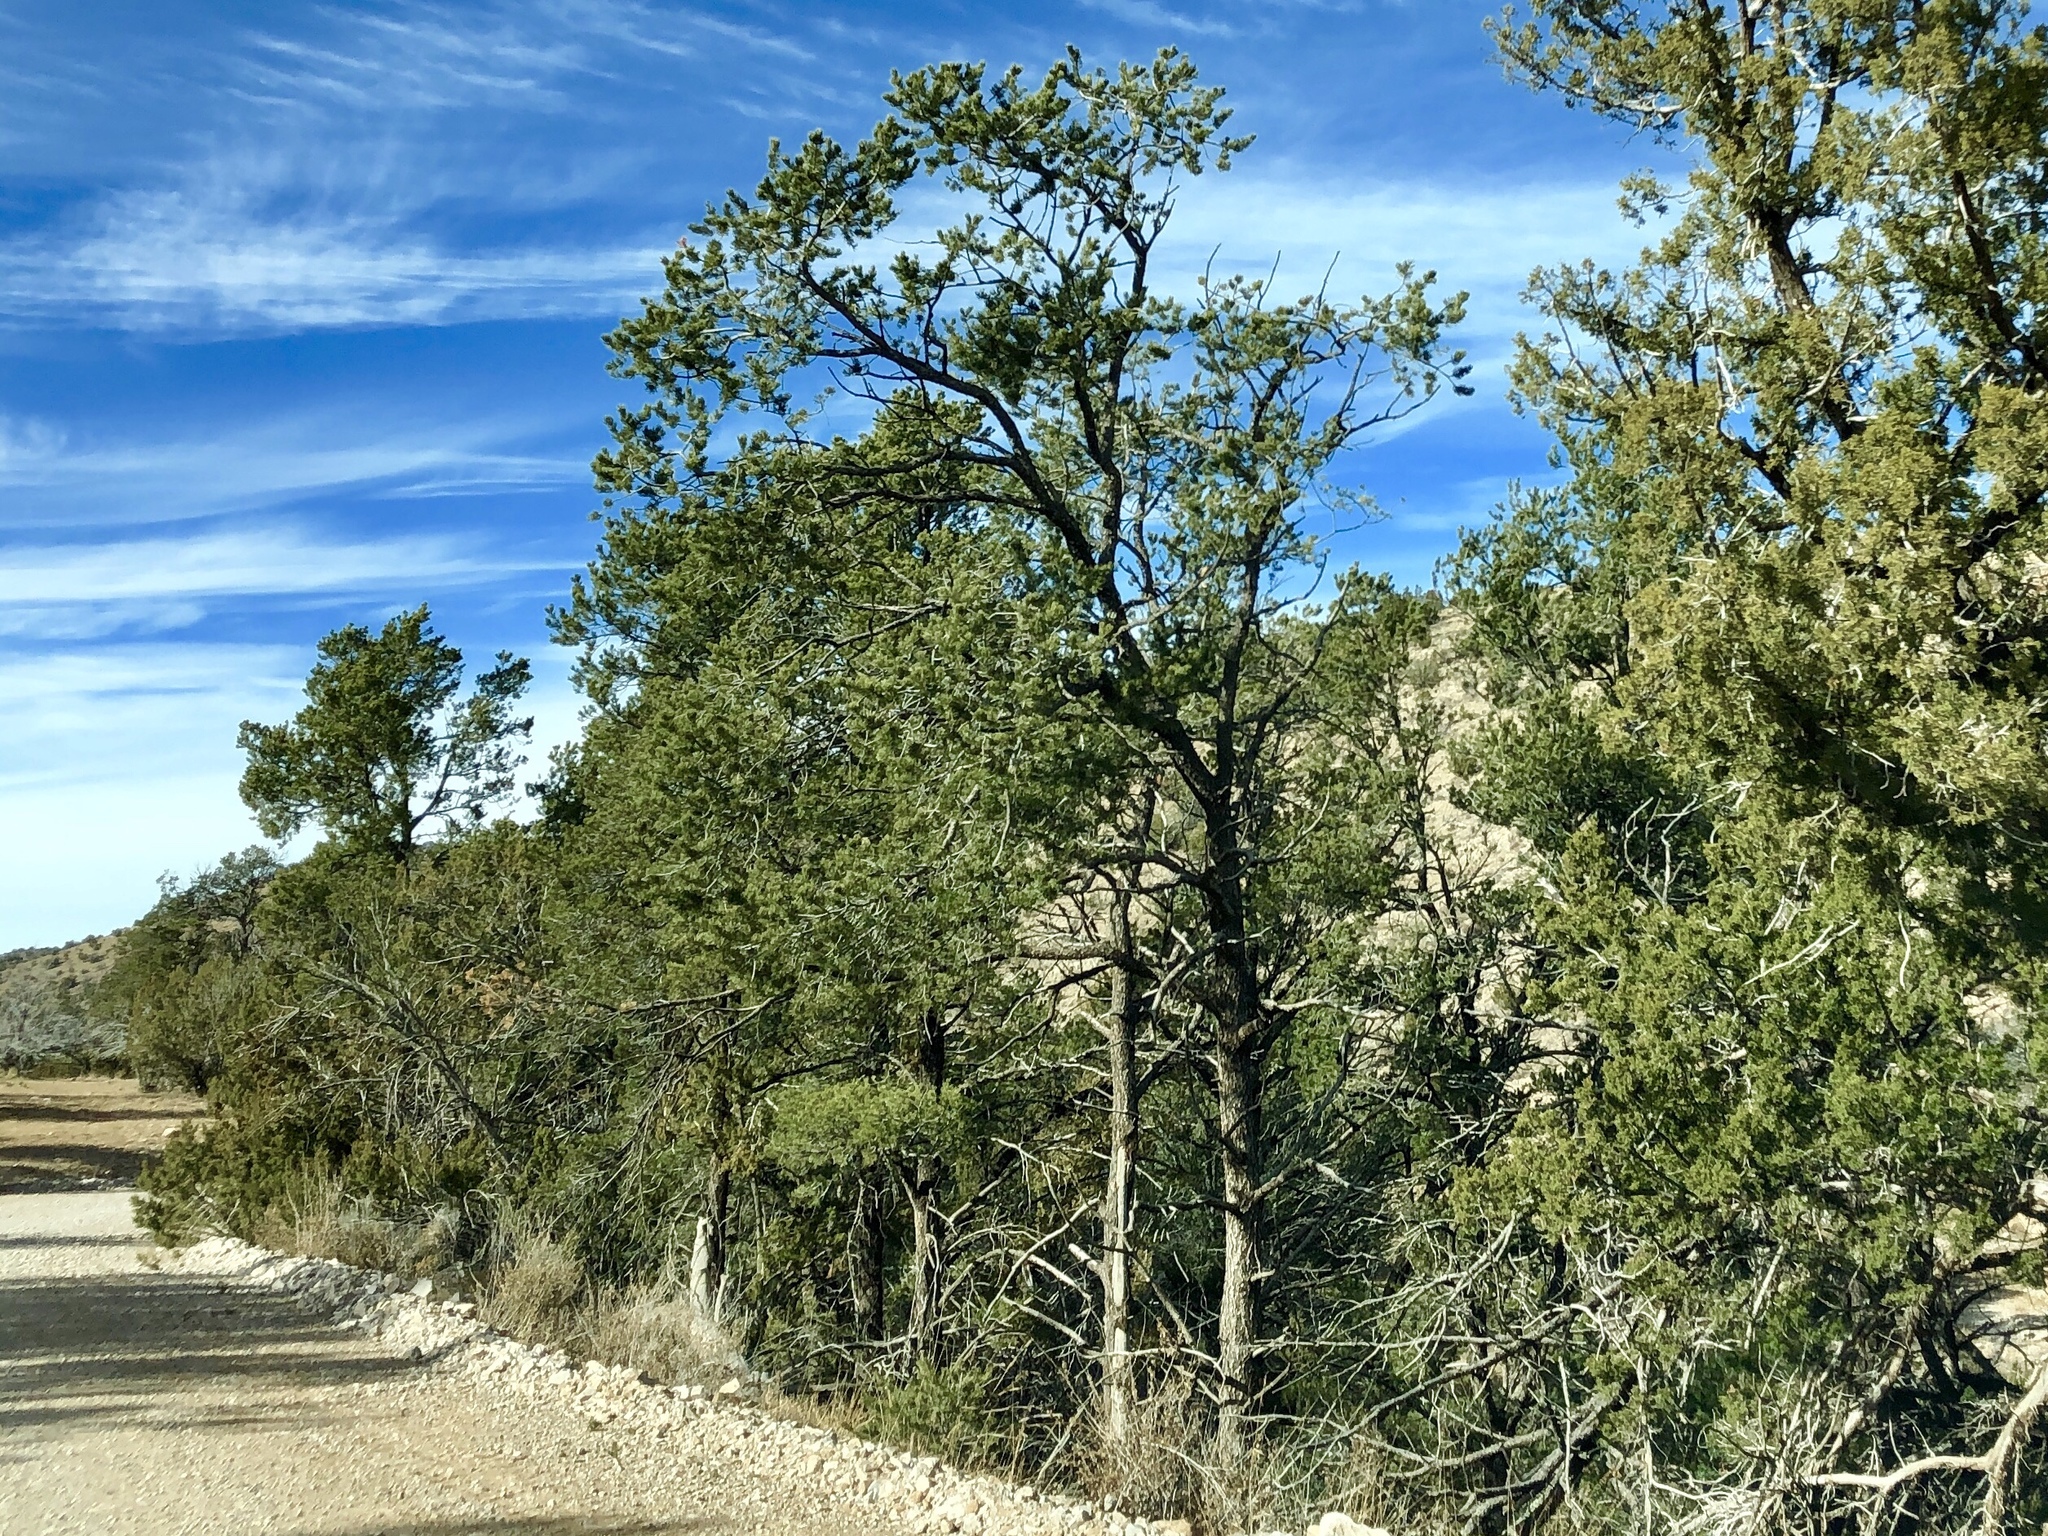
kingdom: Plantae
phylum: Tracheophyta
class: Pinopsida
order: Pinales
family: Pinaceae
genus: Pinus
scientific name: Pinus edulis
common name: Colorado pinyon
